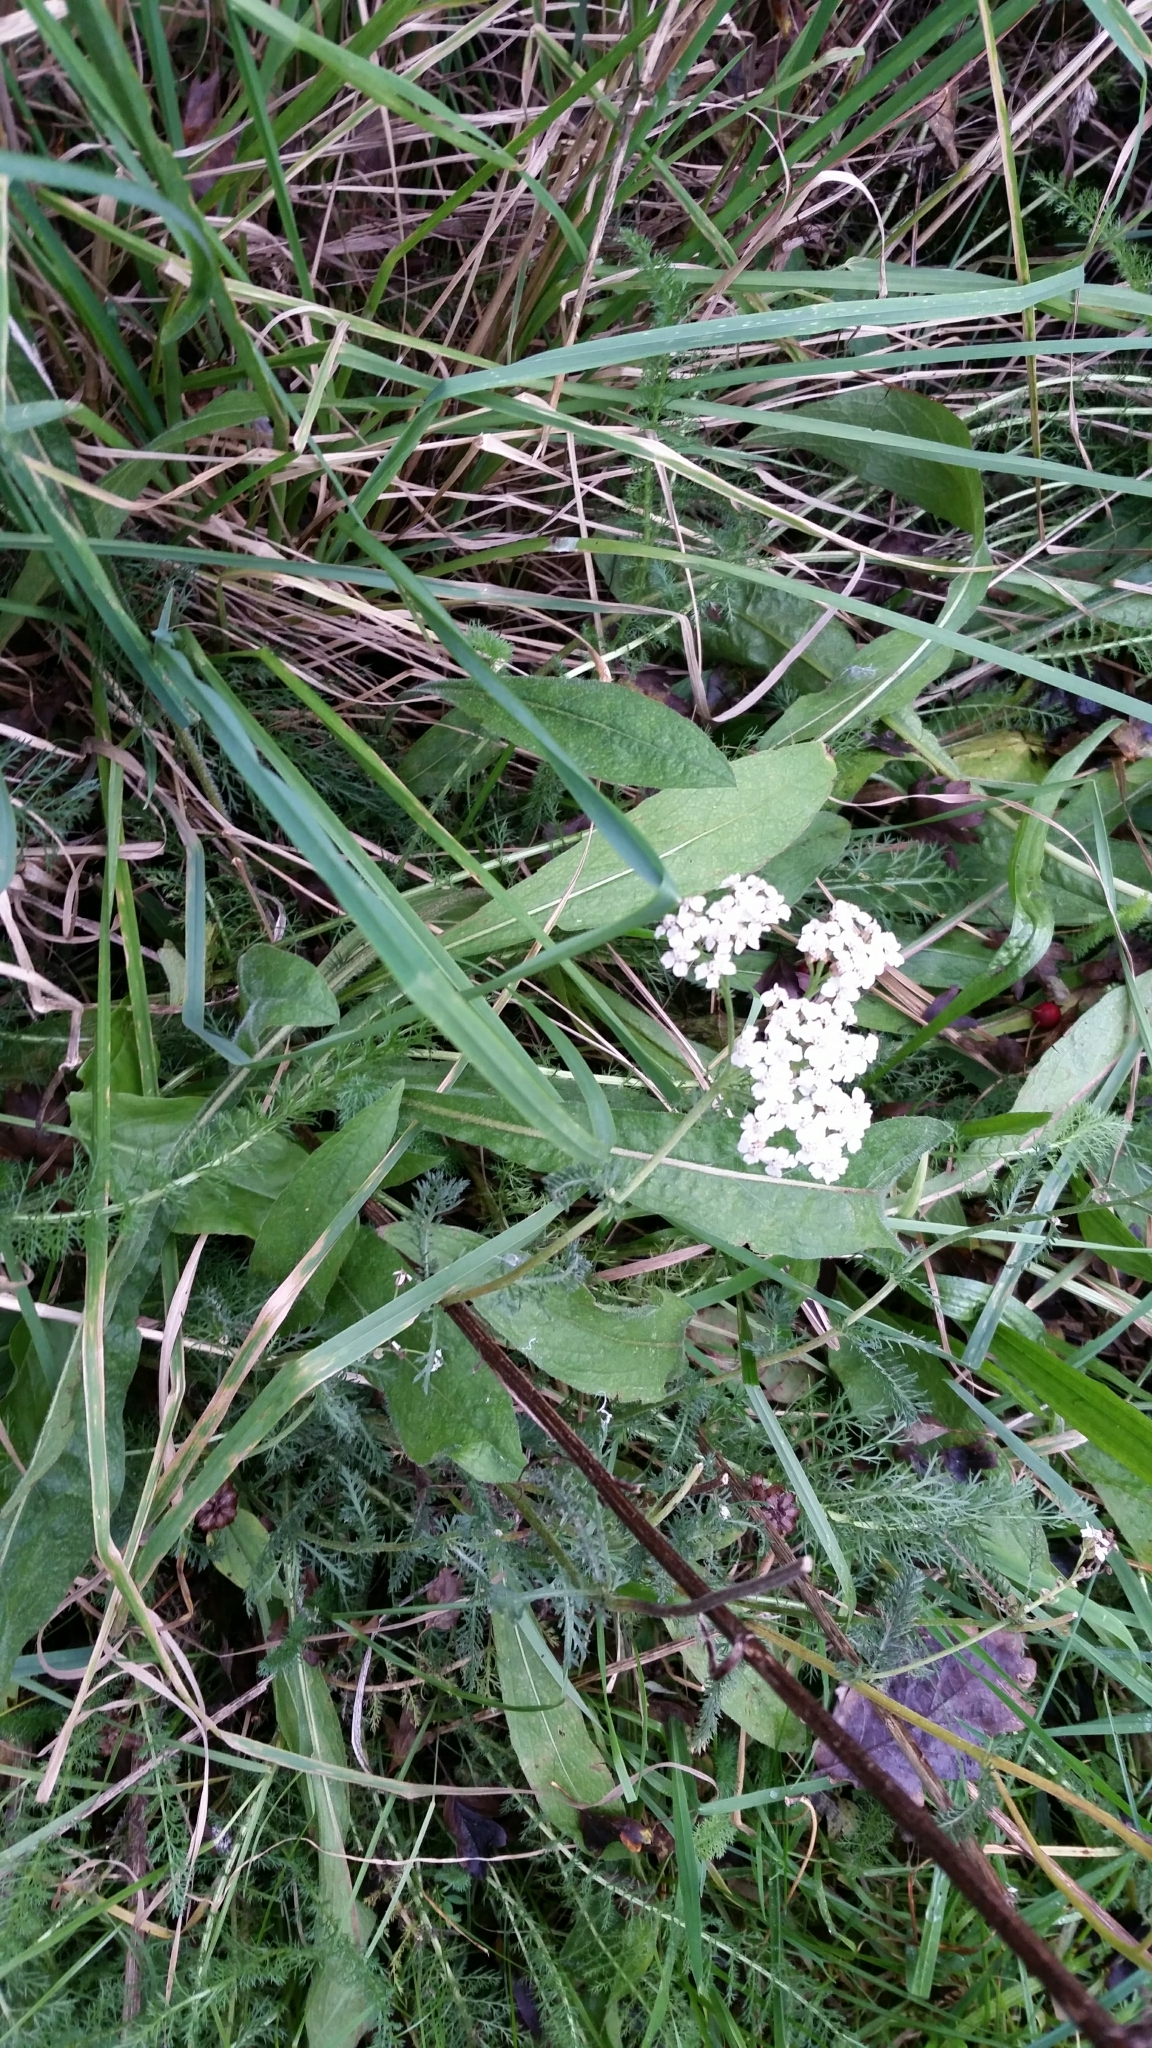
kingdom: Plantae
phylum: Tracheophyta
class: Magnoliopsida
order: Asterales
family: Asteraceae
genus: Achillea
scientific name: Achillea millefolium
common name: Yarrow
